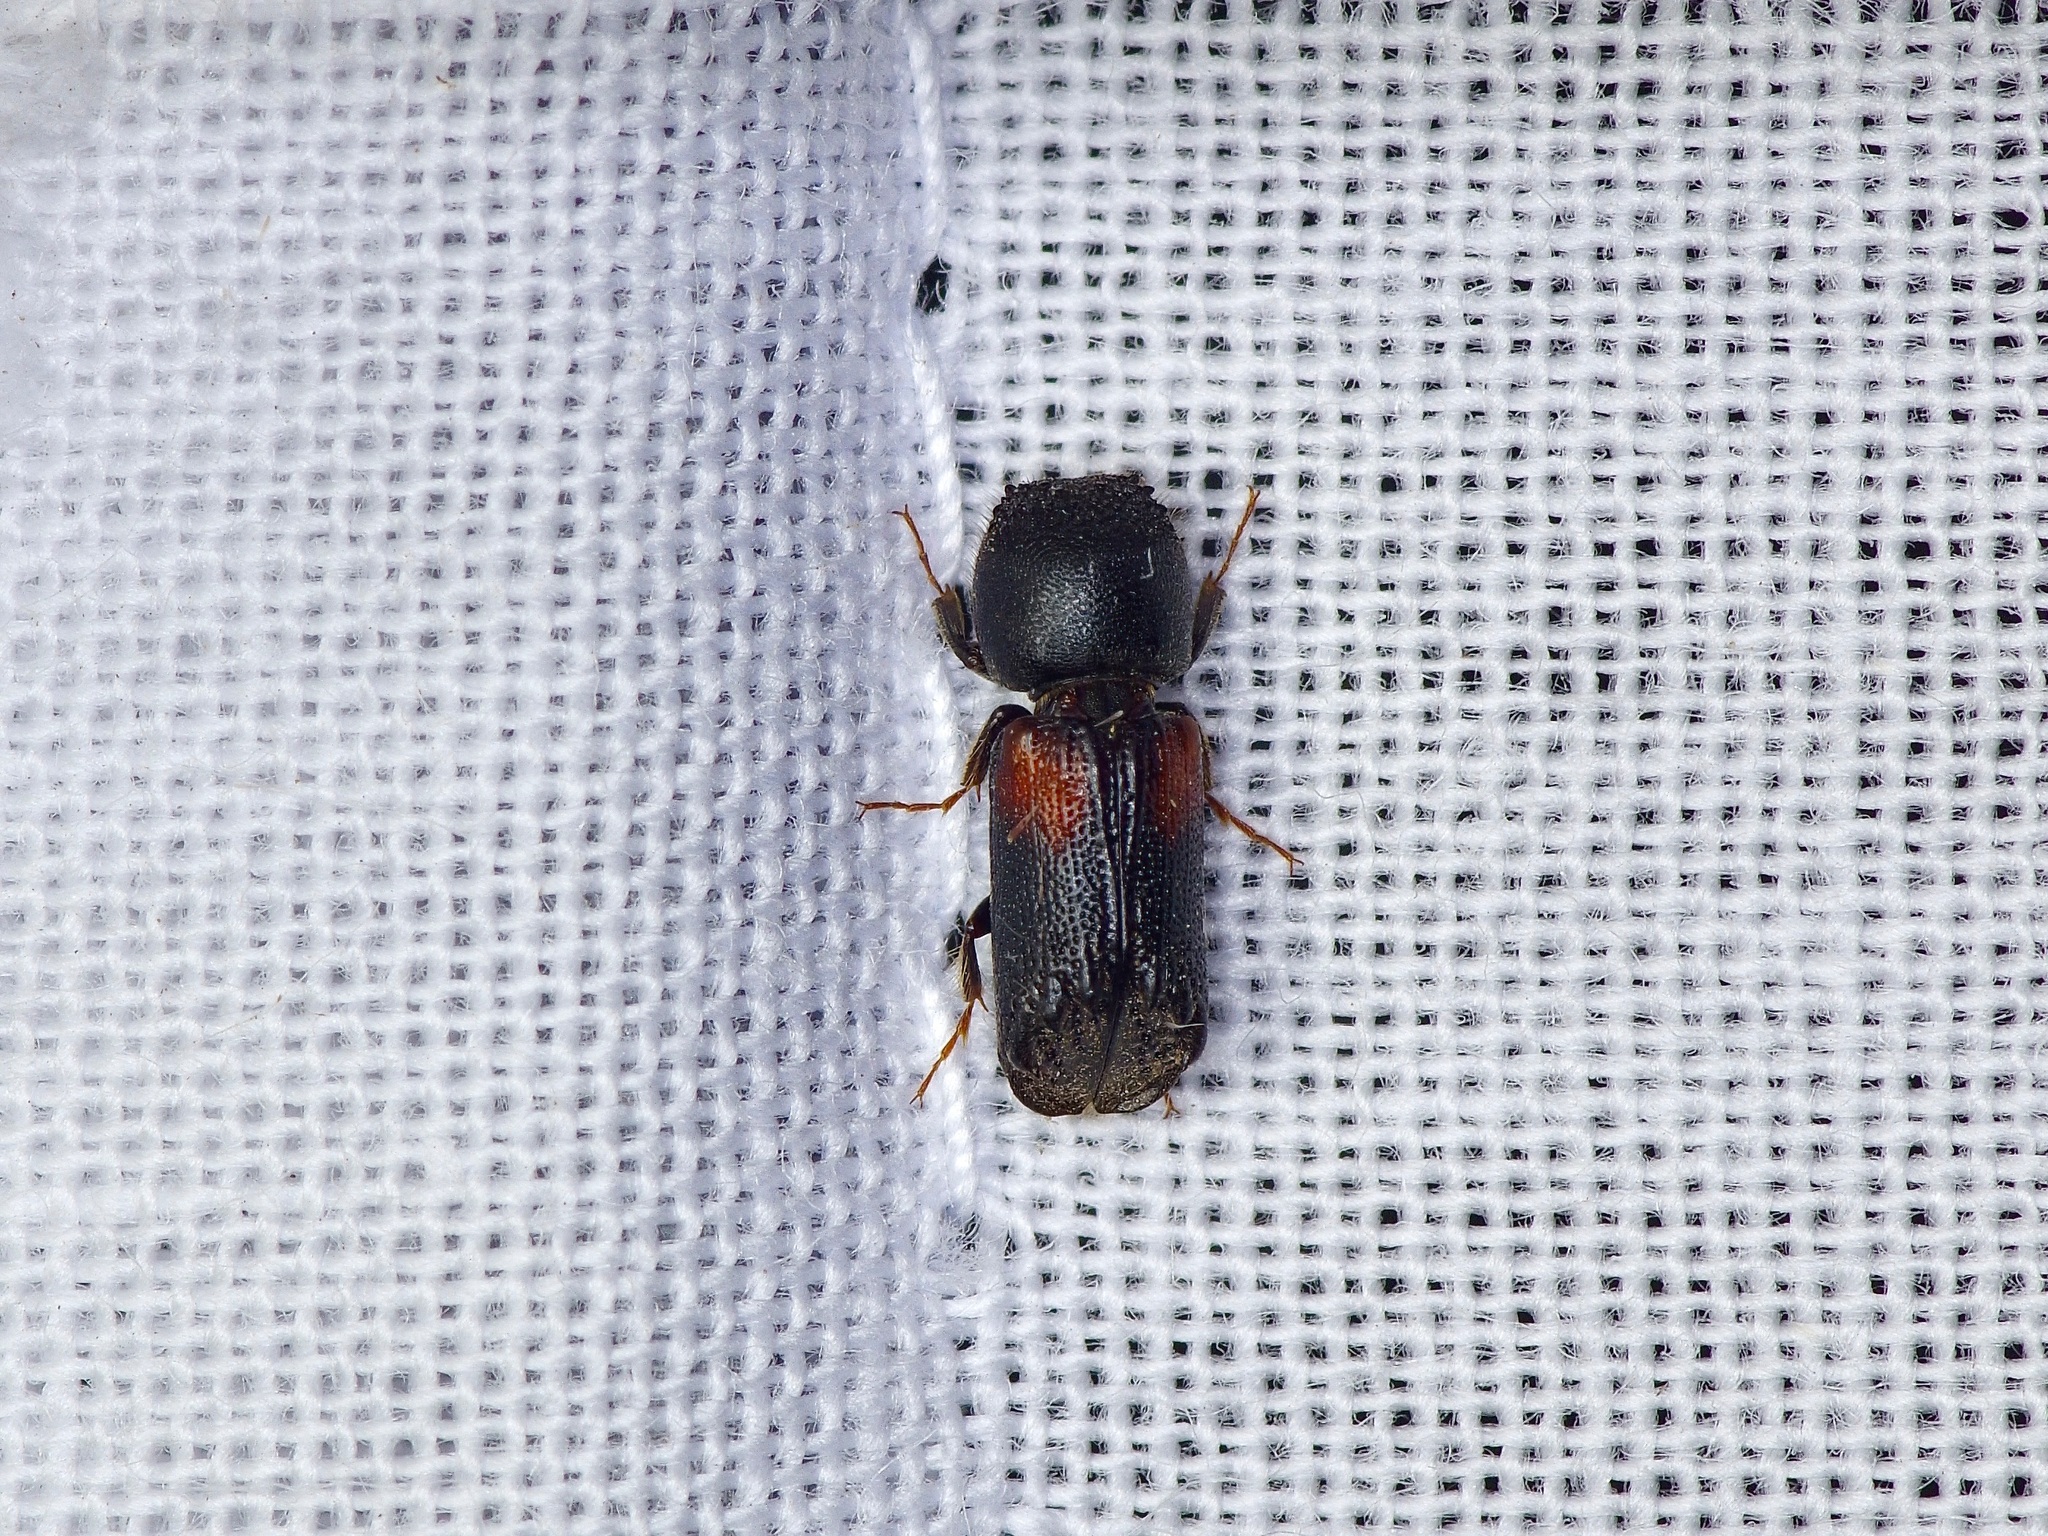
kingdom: Animalia
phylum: Arthropoda
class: Insecta
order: Coleoptera
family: Bostrichidae
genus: Xylobiops
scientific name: Xylobiops basilaris
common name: Red-shouldered bostrichid
